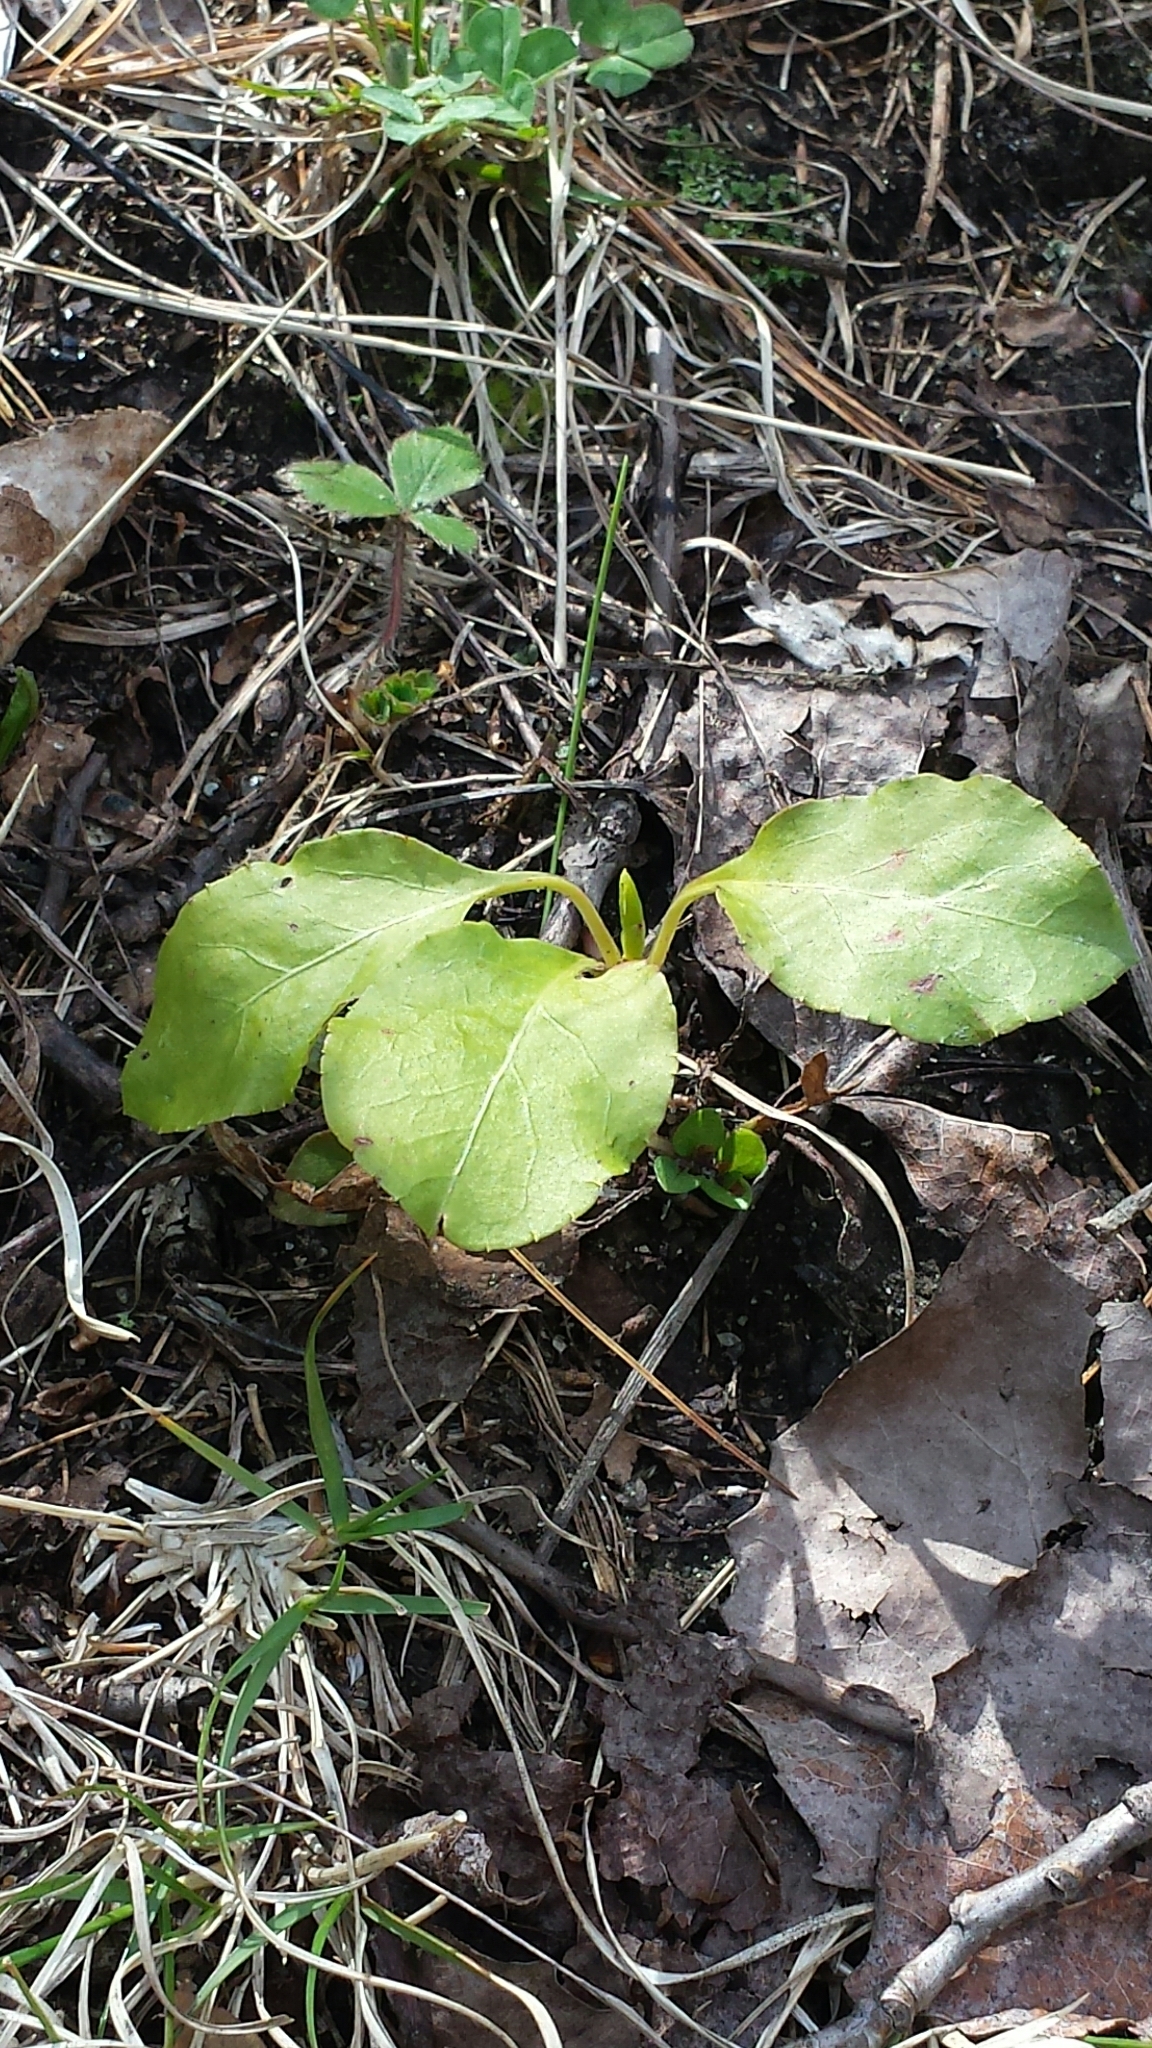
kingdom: Plantae
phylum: Tracheophyta
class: Magnoliopsida
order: Ericales
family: Ericaceae
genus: Pyrola
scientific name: Pyrola elliptica
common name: Shinleaf
